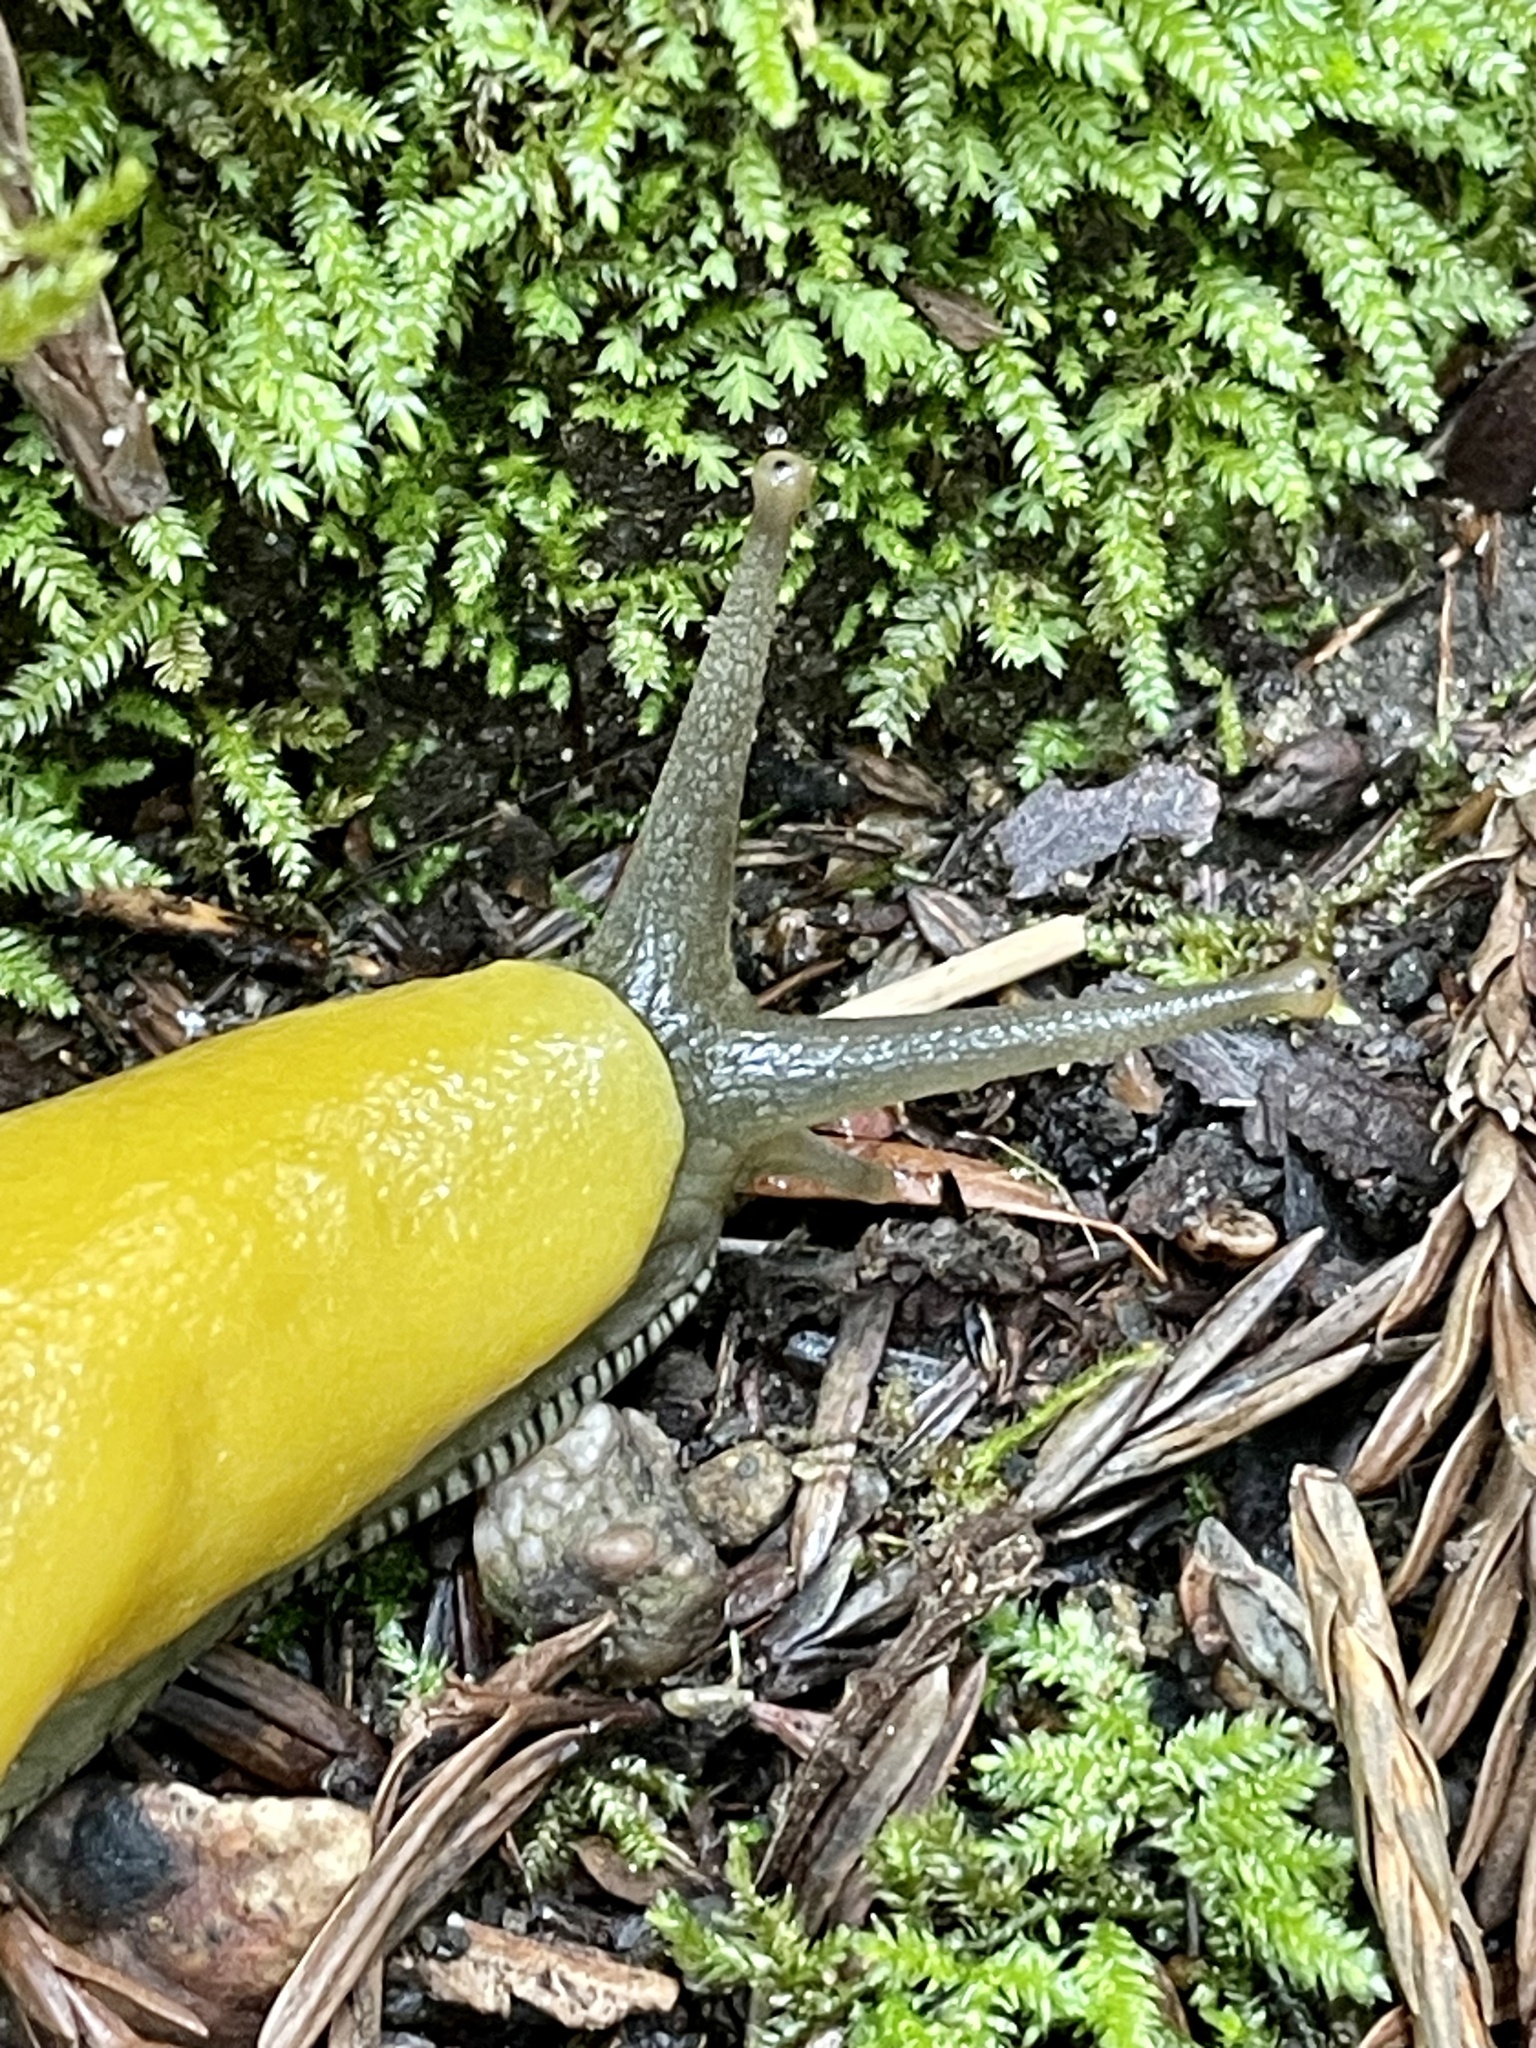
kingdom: Animalia
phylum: Mollusca
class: Gastropoda
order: Stylommatophora
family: Ariolimacidae
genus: Ariolimax
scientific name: Ariolimax dolichophallus
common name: Slender banana slug
